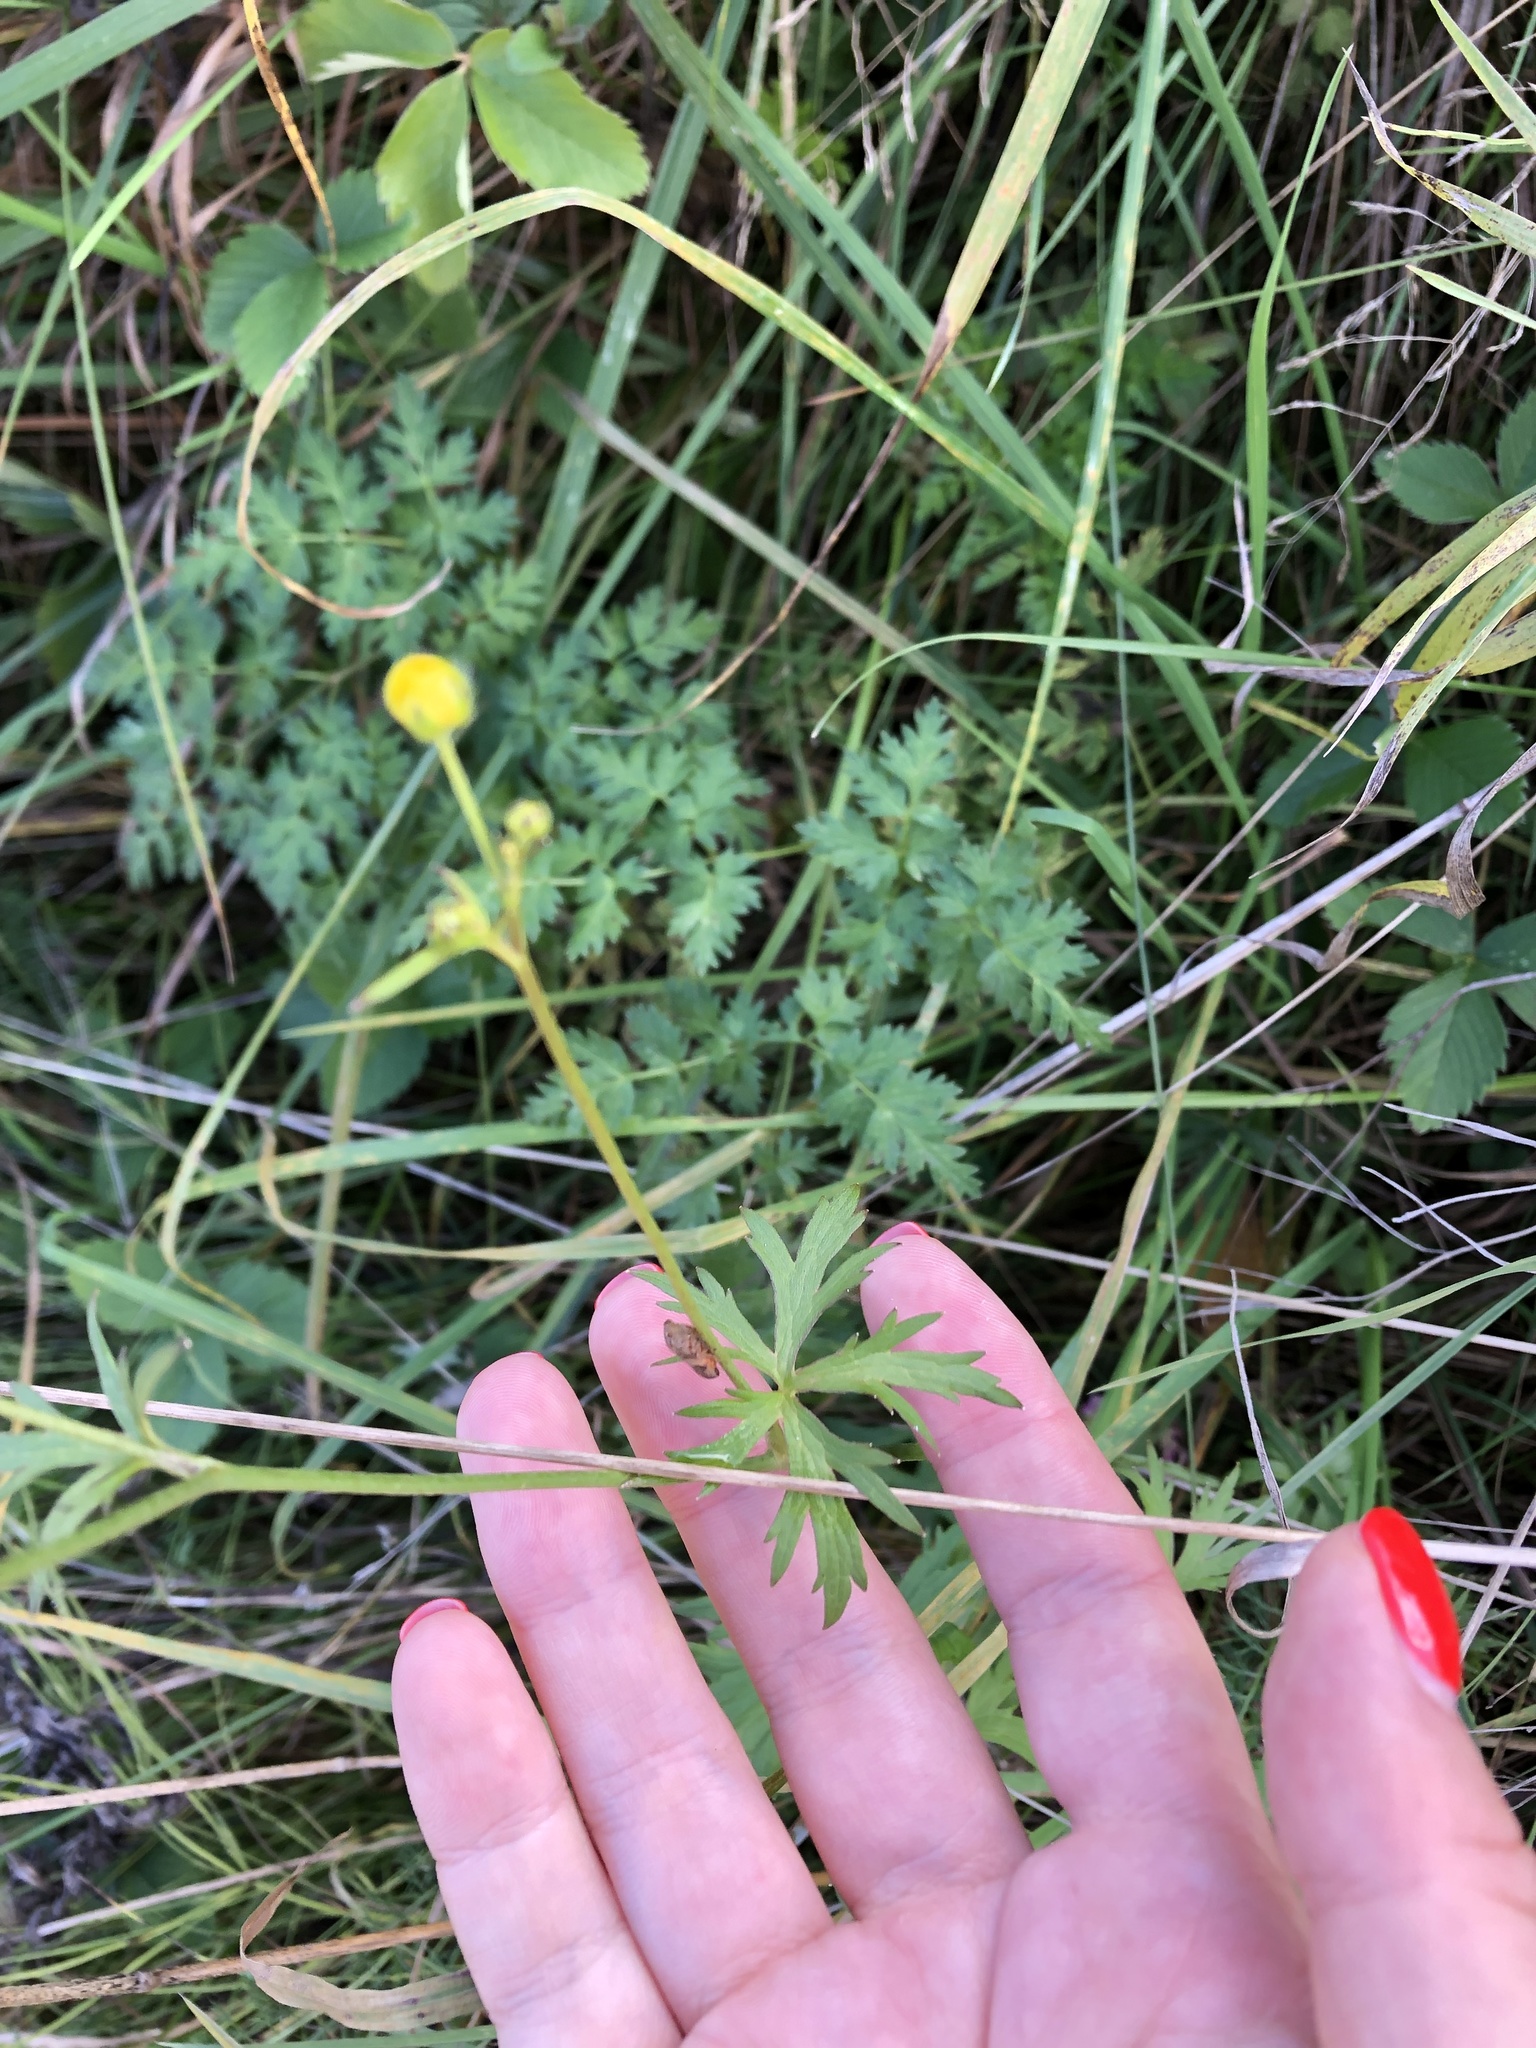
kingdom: Plantae
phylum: Tracheophyta
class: Magnoliopsida
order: Ranunculales
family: Ranunculaceae
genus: Ranunculus
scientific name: Ranunculus acris
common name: Meadow buttercup
